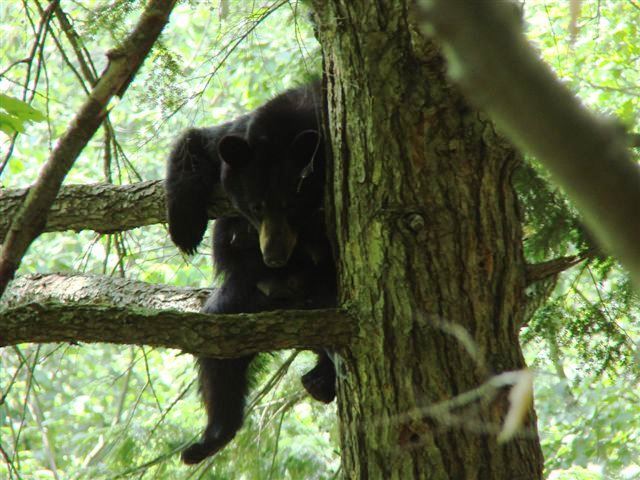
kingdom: Animalia
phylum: Chordata
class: Mammalia
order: Carnivora
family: Ursidae
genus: Ursus
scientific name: Ursus americanus
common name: American black bear
